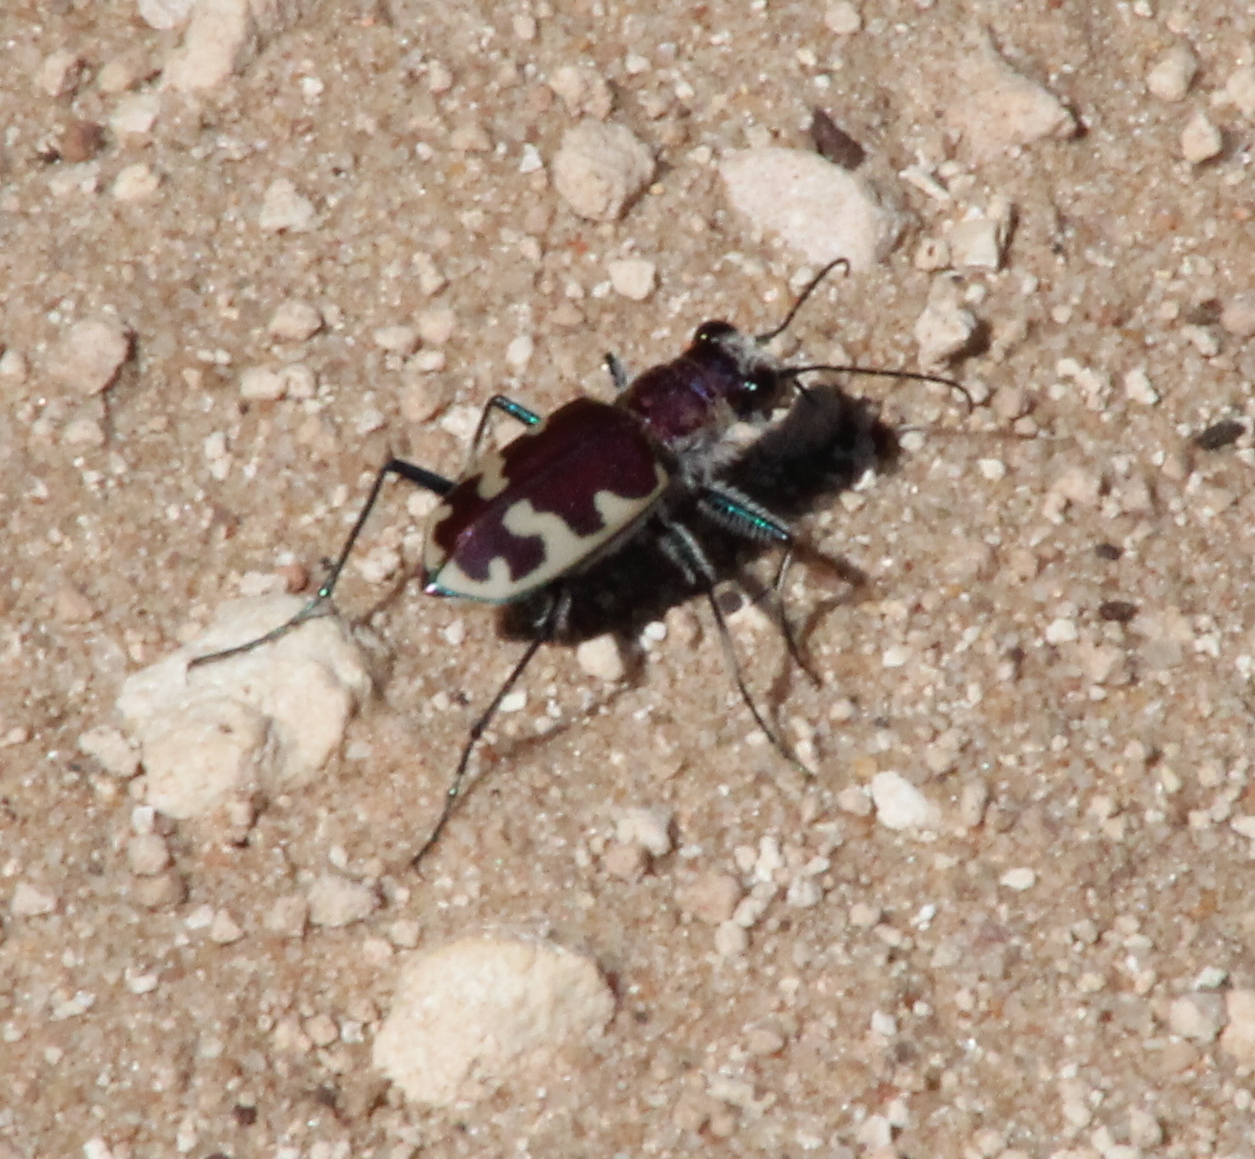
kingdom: Animalia
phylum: Arthropoda
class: Insecta
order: Coleoptera
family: Carabidae
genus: Cicindela
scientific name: Cicindela formosa
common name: Big sand tiger beetle
